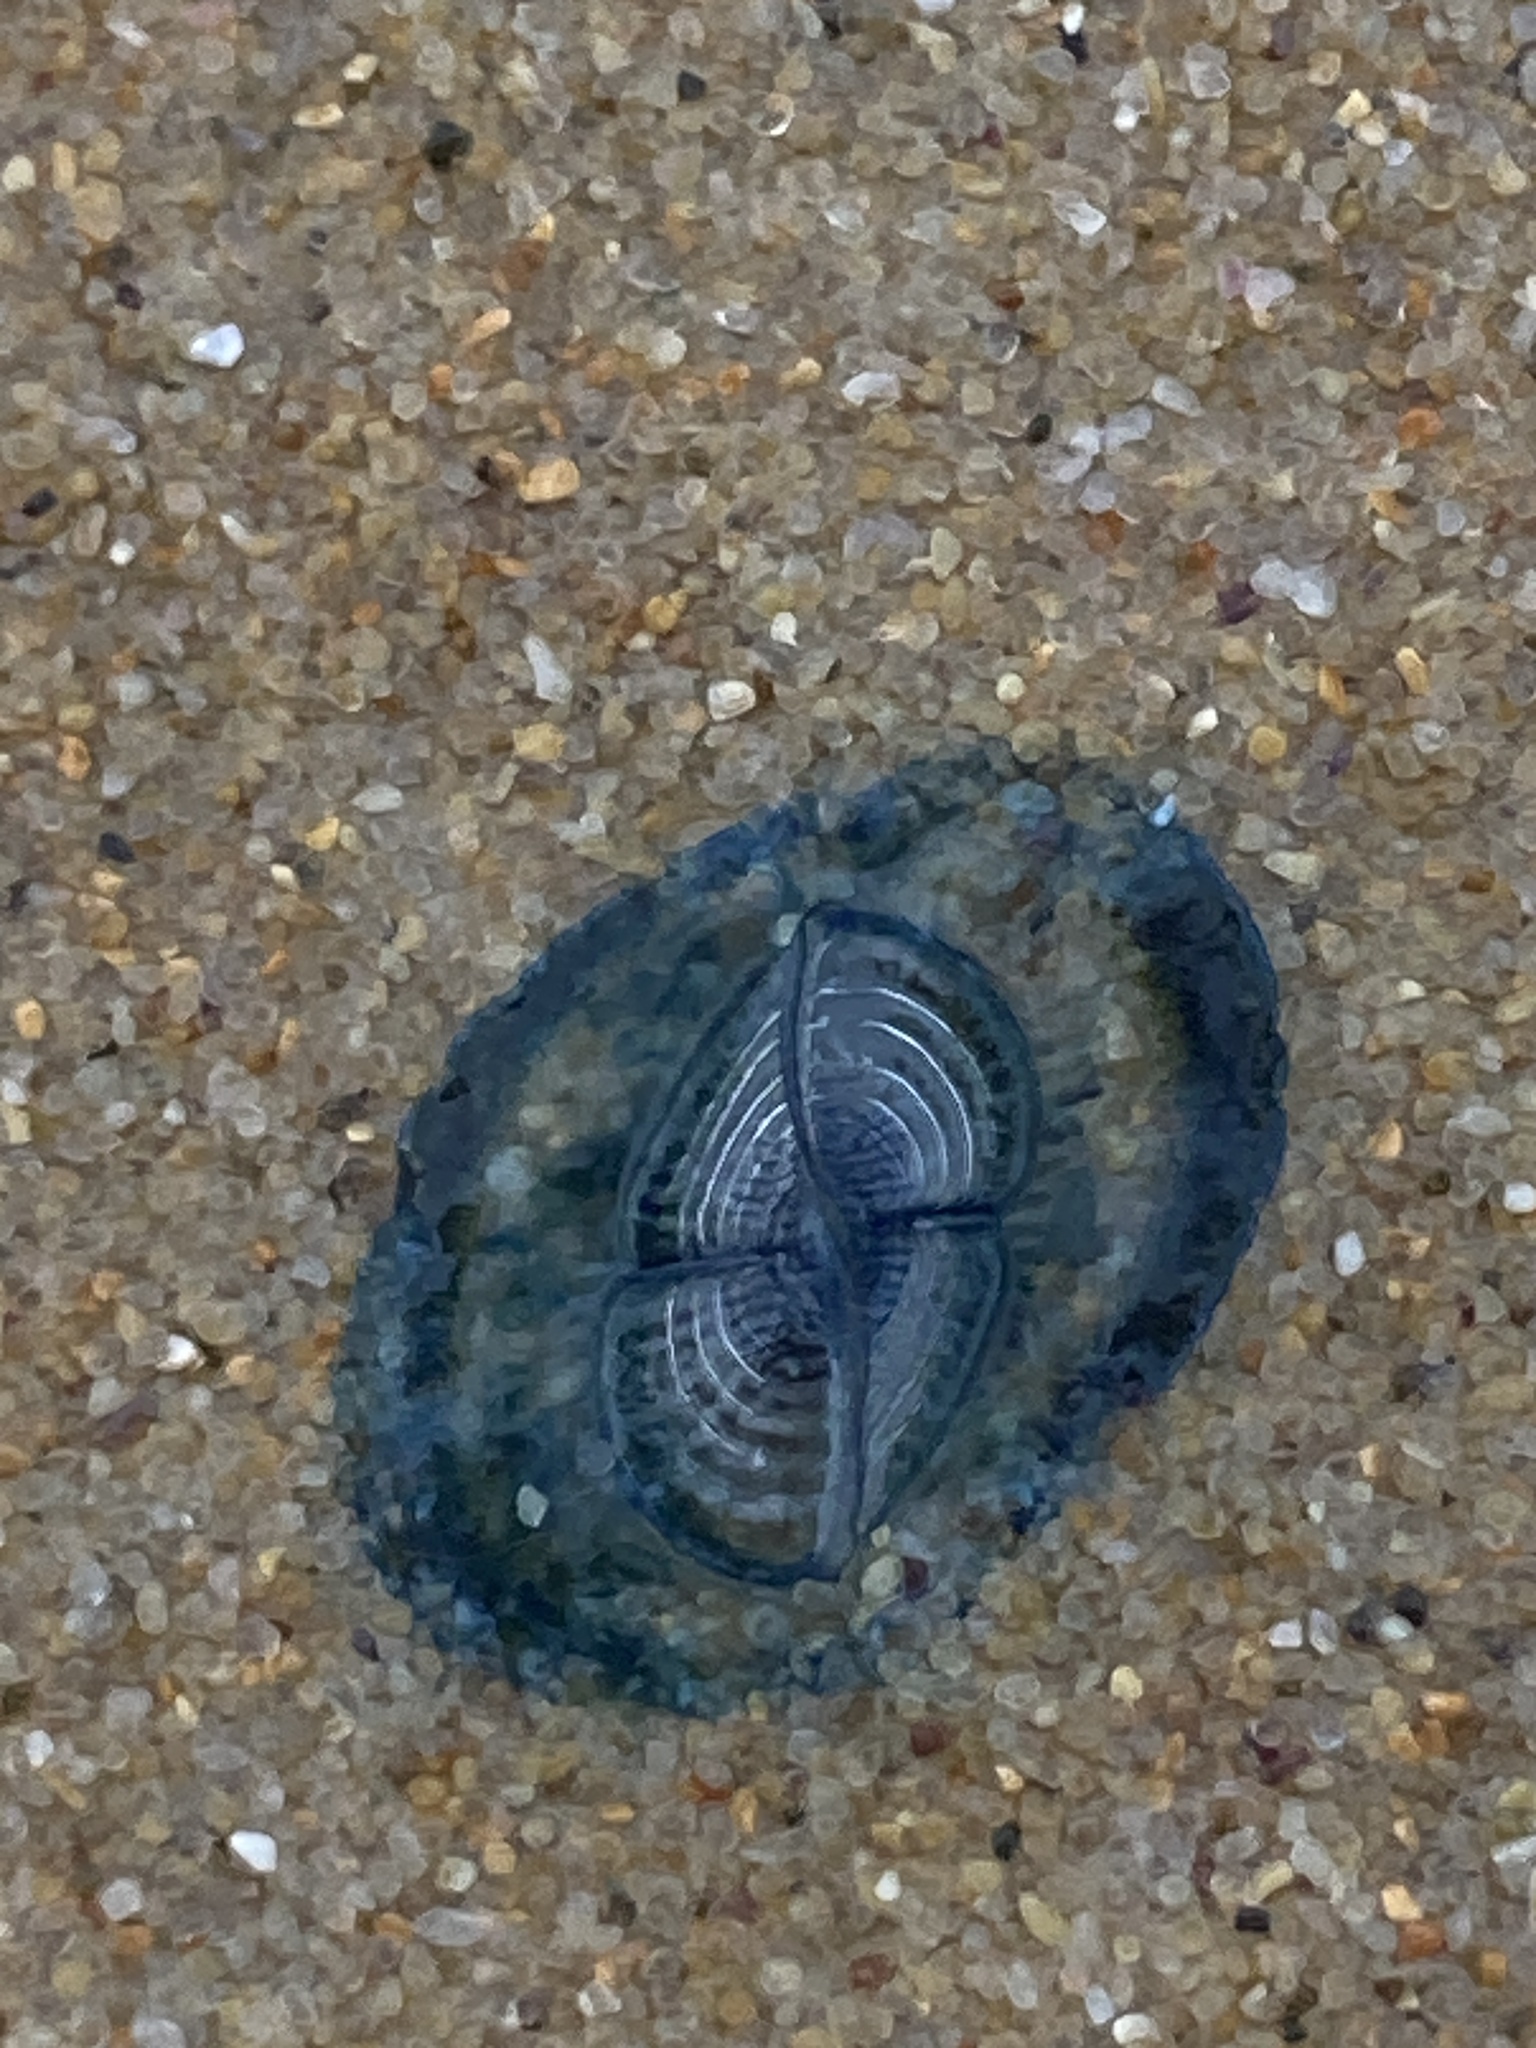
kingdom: Animalia
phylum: Cnidaria
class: Hydrozoa
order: Anthoathecata
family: Porpitidae
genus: Velella
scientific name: Velella velella
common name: By-the-wind-sailor
